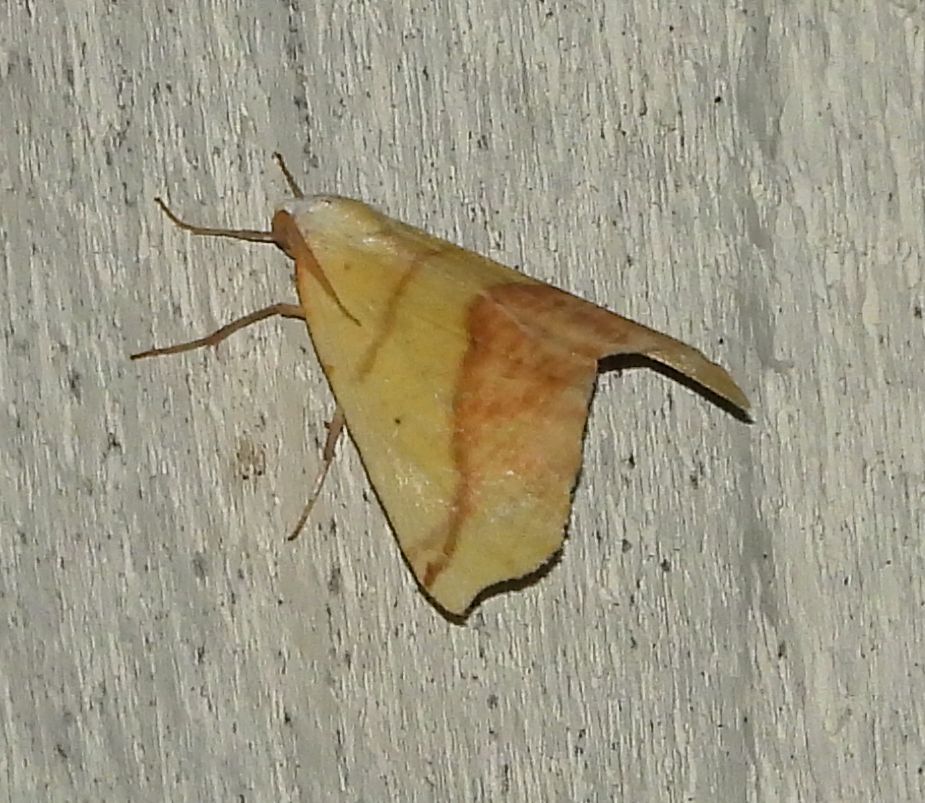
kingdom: Animalia
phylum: Arthropoda
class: Insecta
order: Lepidoptera
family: Geometridae
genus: Sicya
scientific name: Sicya macularia
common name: Sharp-lined yellow
